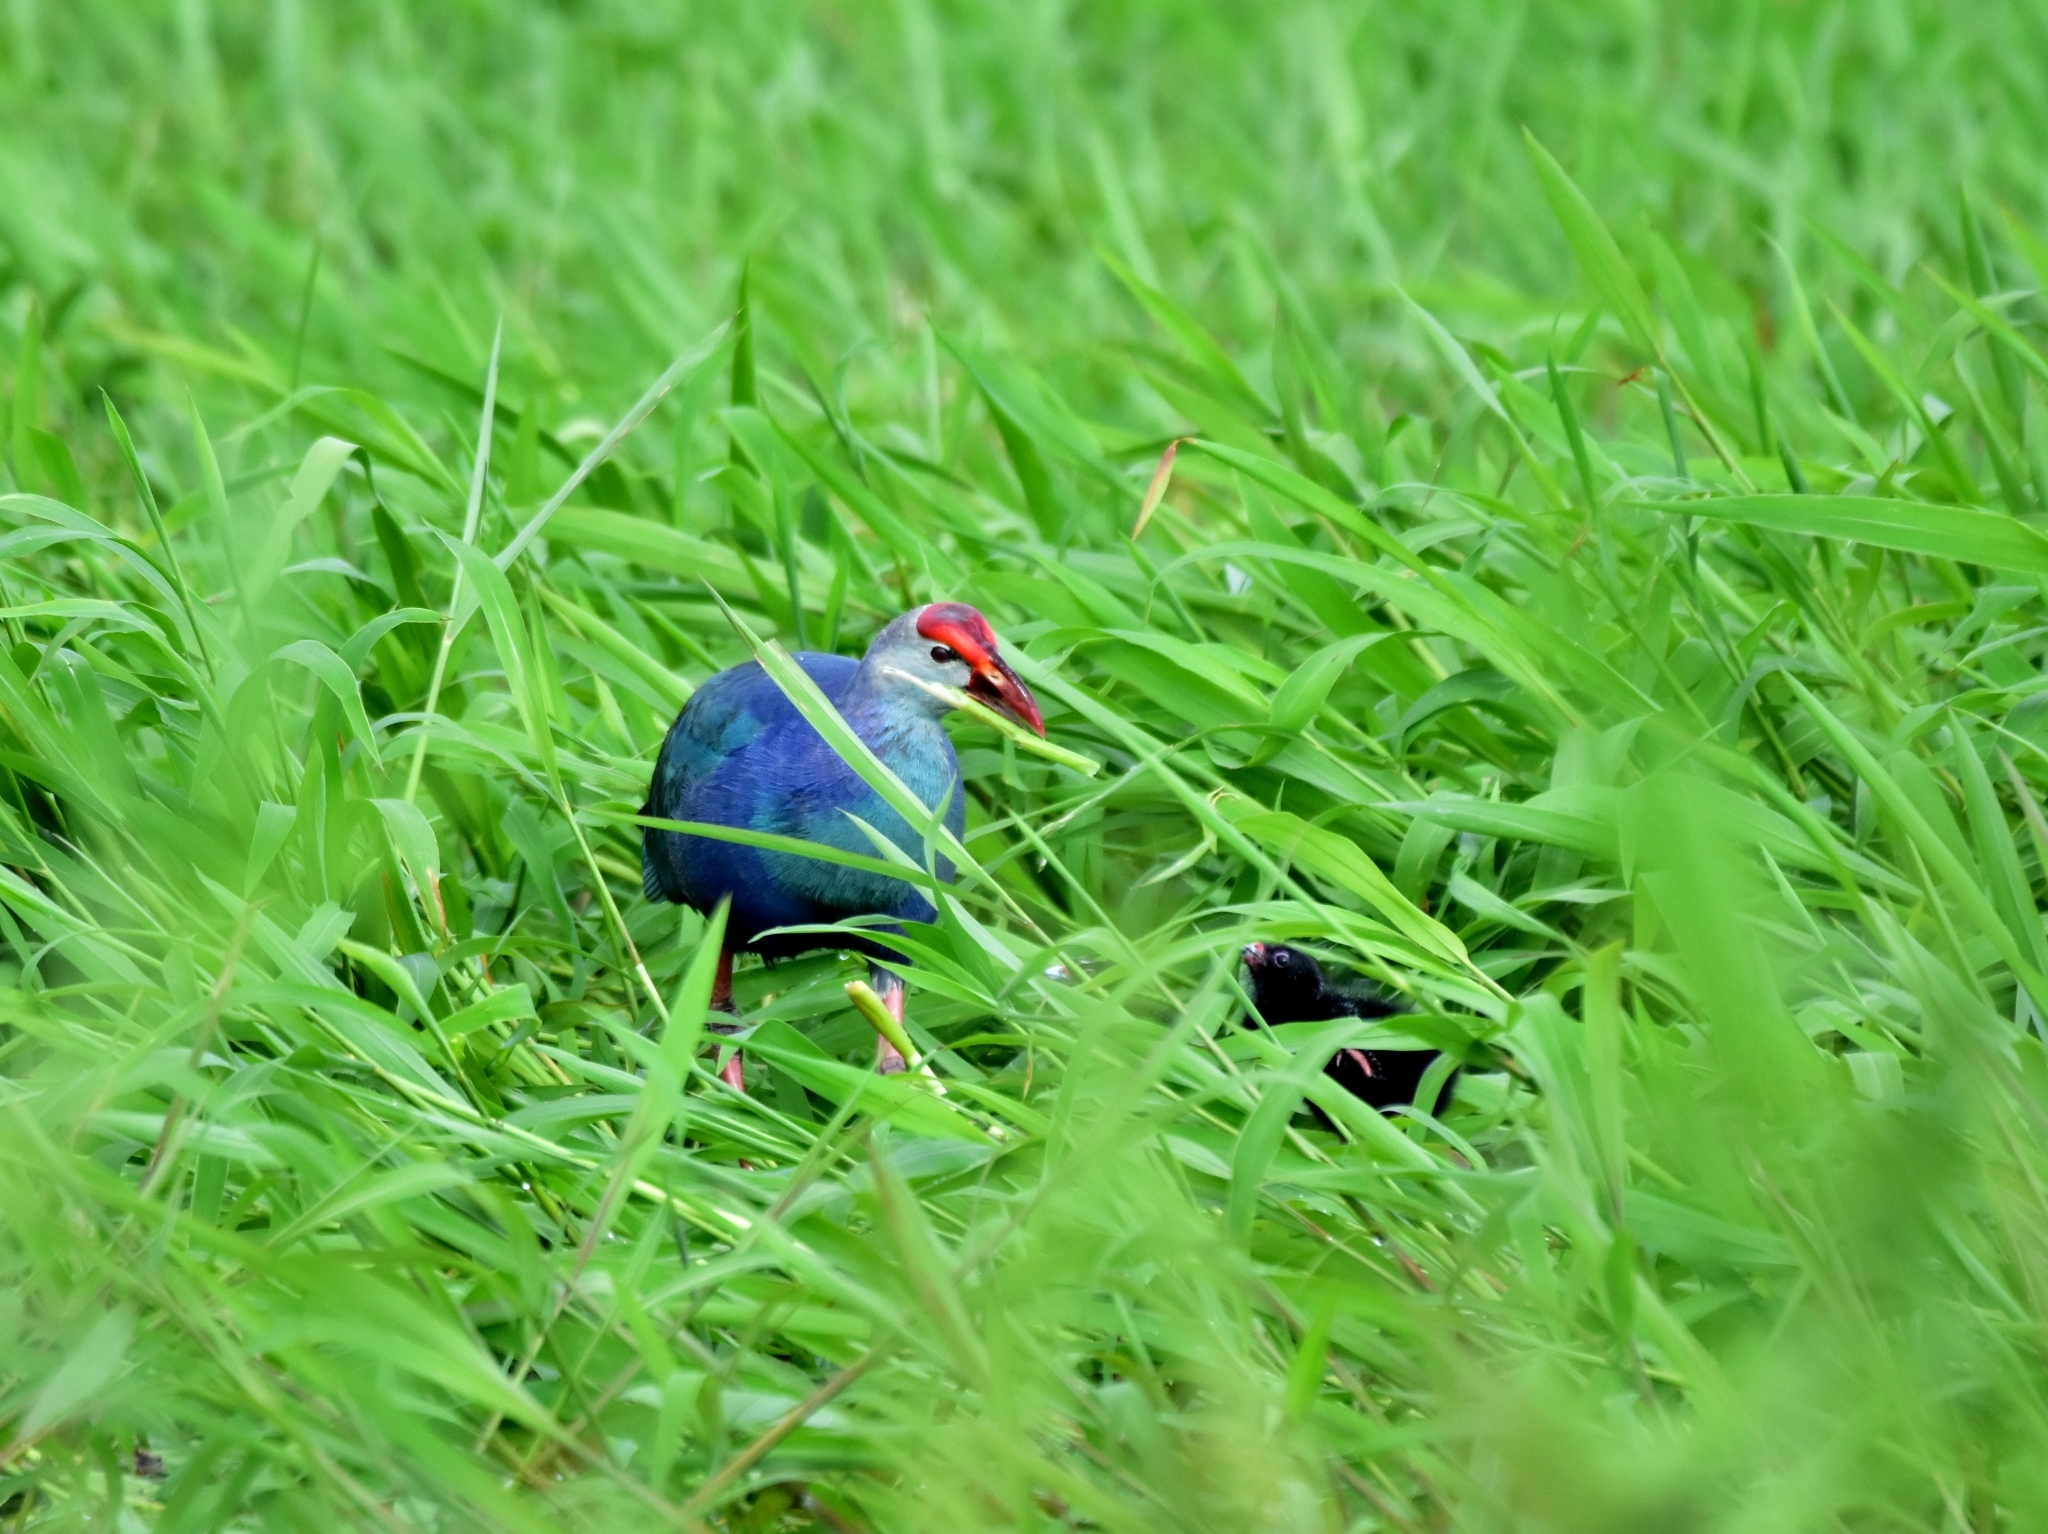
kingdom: Animalia
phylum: Chordata
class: Aves
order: Gruiformes
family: Rallidae
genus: Porphyrio
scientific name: Porphyrio porphyrio
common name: Purple swamphen
